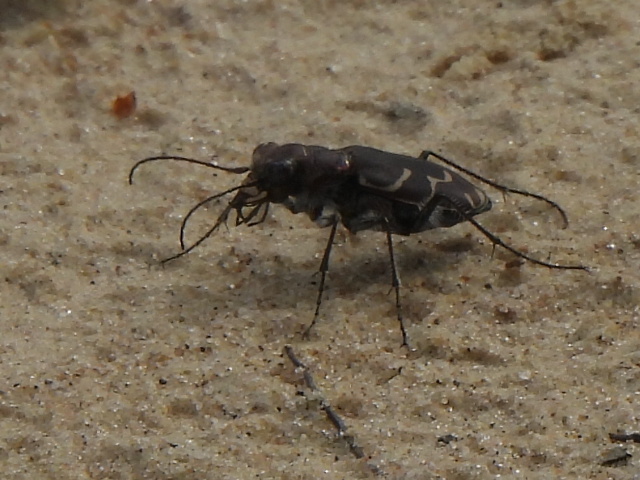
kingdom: Animalia
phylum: Arthropoda
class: Insecta
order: Coleoptera
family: Carabidae
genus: Cicindela
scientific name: Cicindela tranquebarica
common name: Oblique-lined tiger beetle
